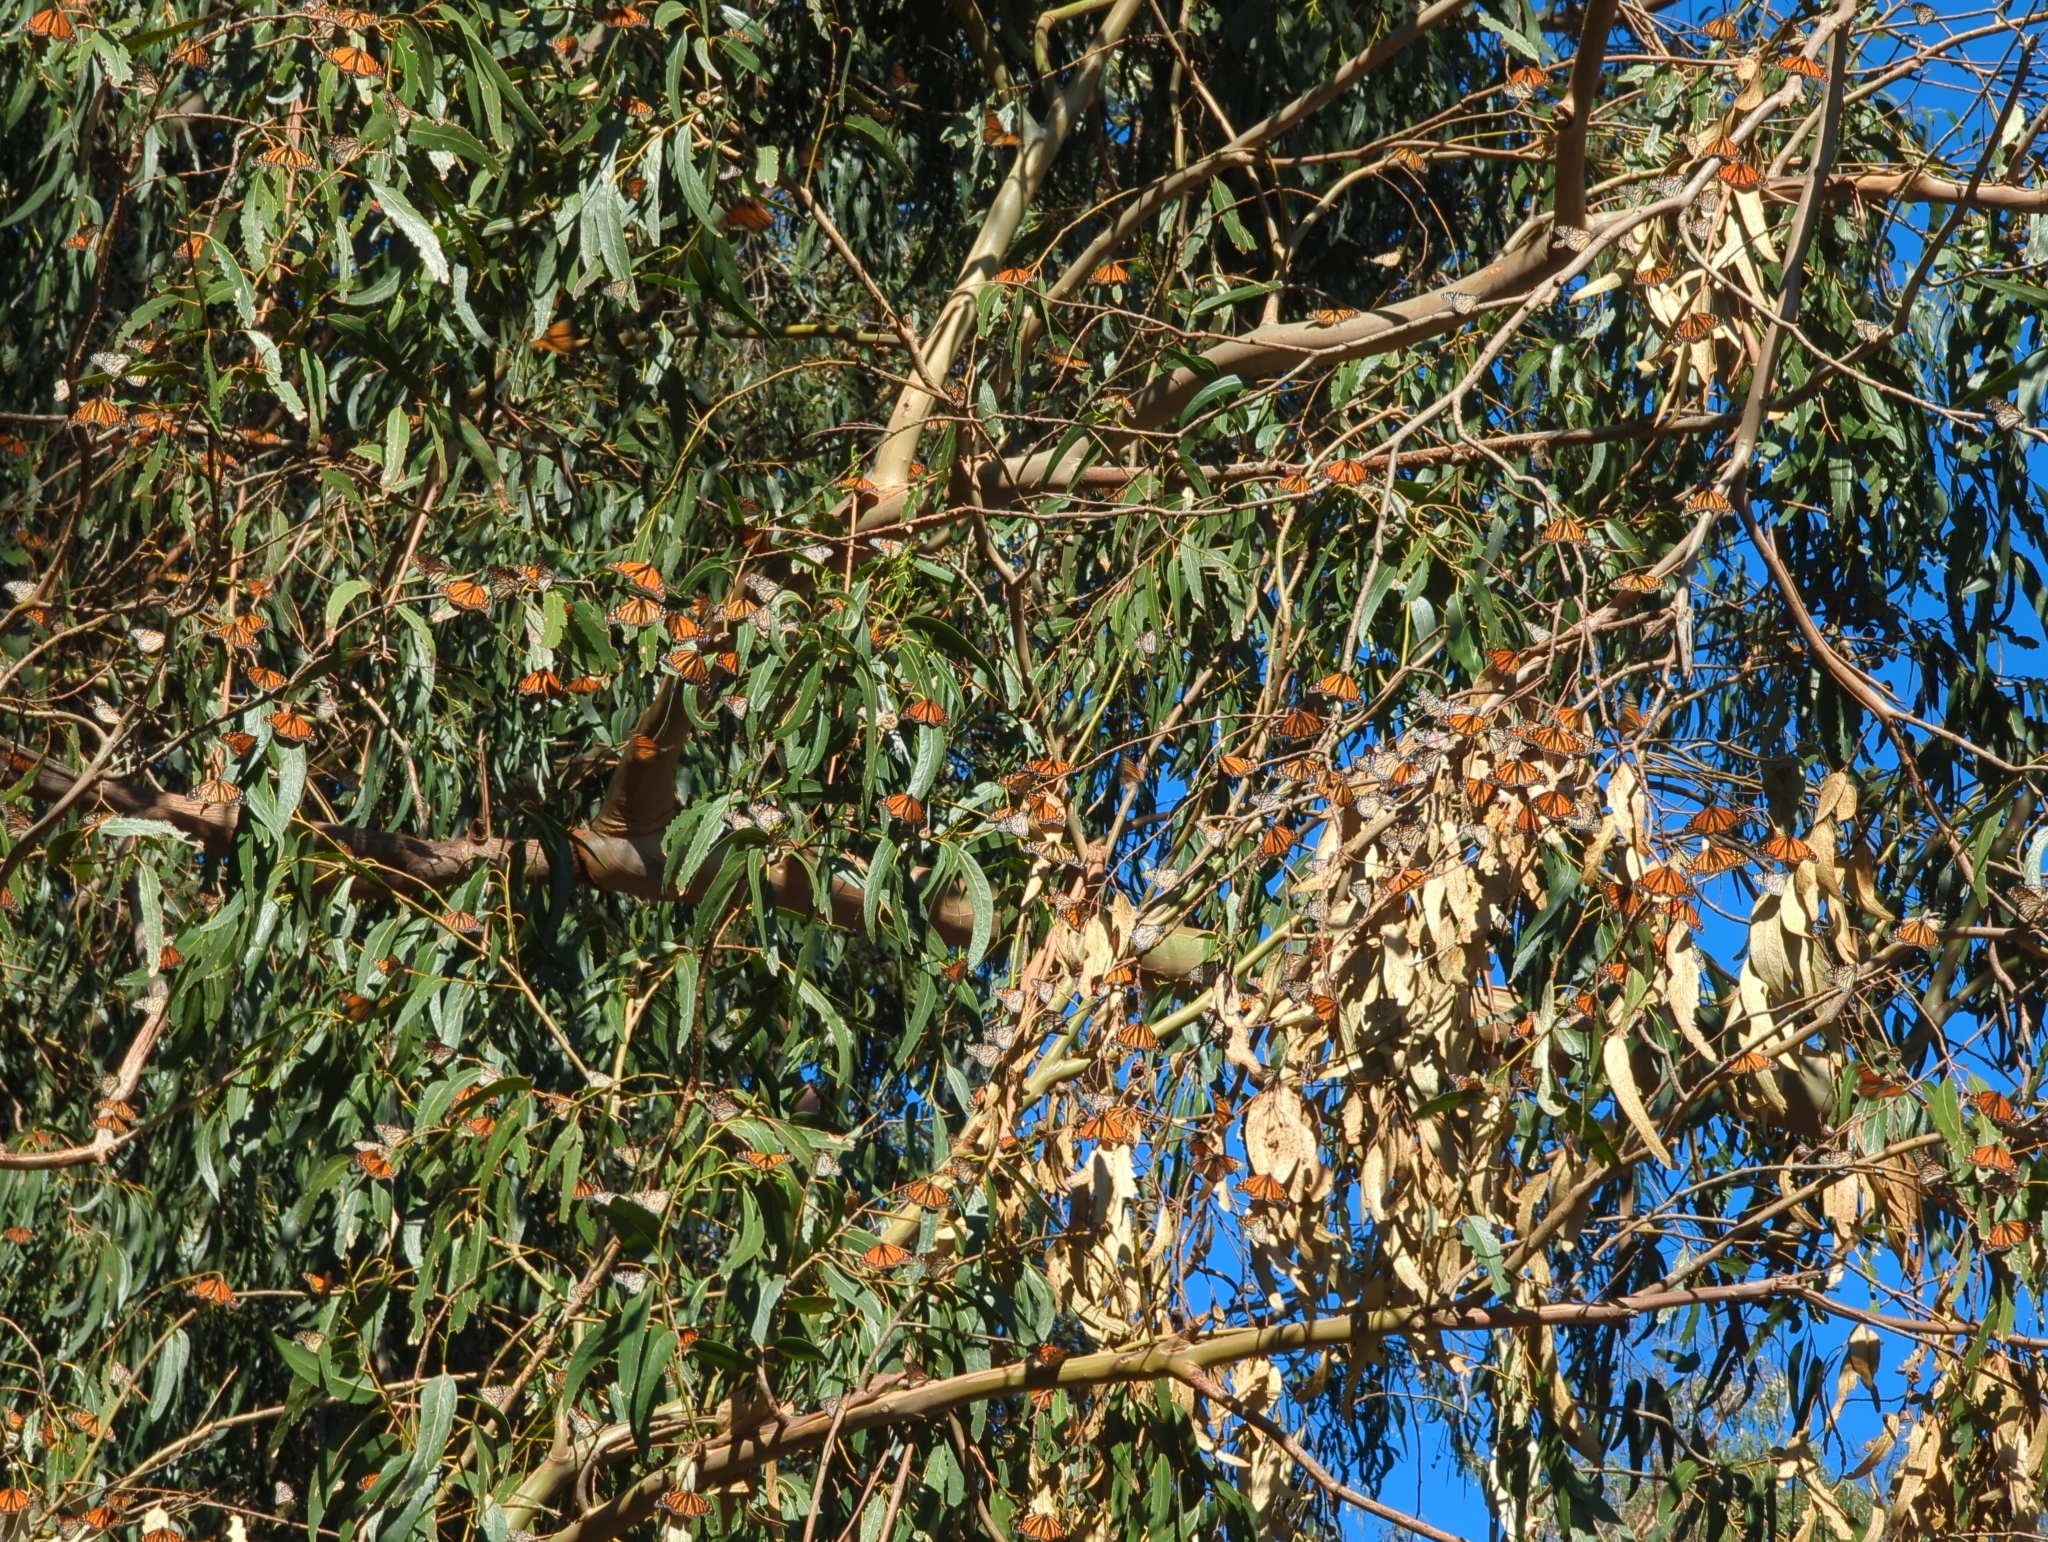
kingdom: Animalia
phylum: Arthropoda
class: Insecta
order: Lepidoptera
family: Nymphalidae
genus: Danaus
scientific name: Danaus plexippus
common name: Monarch
